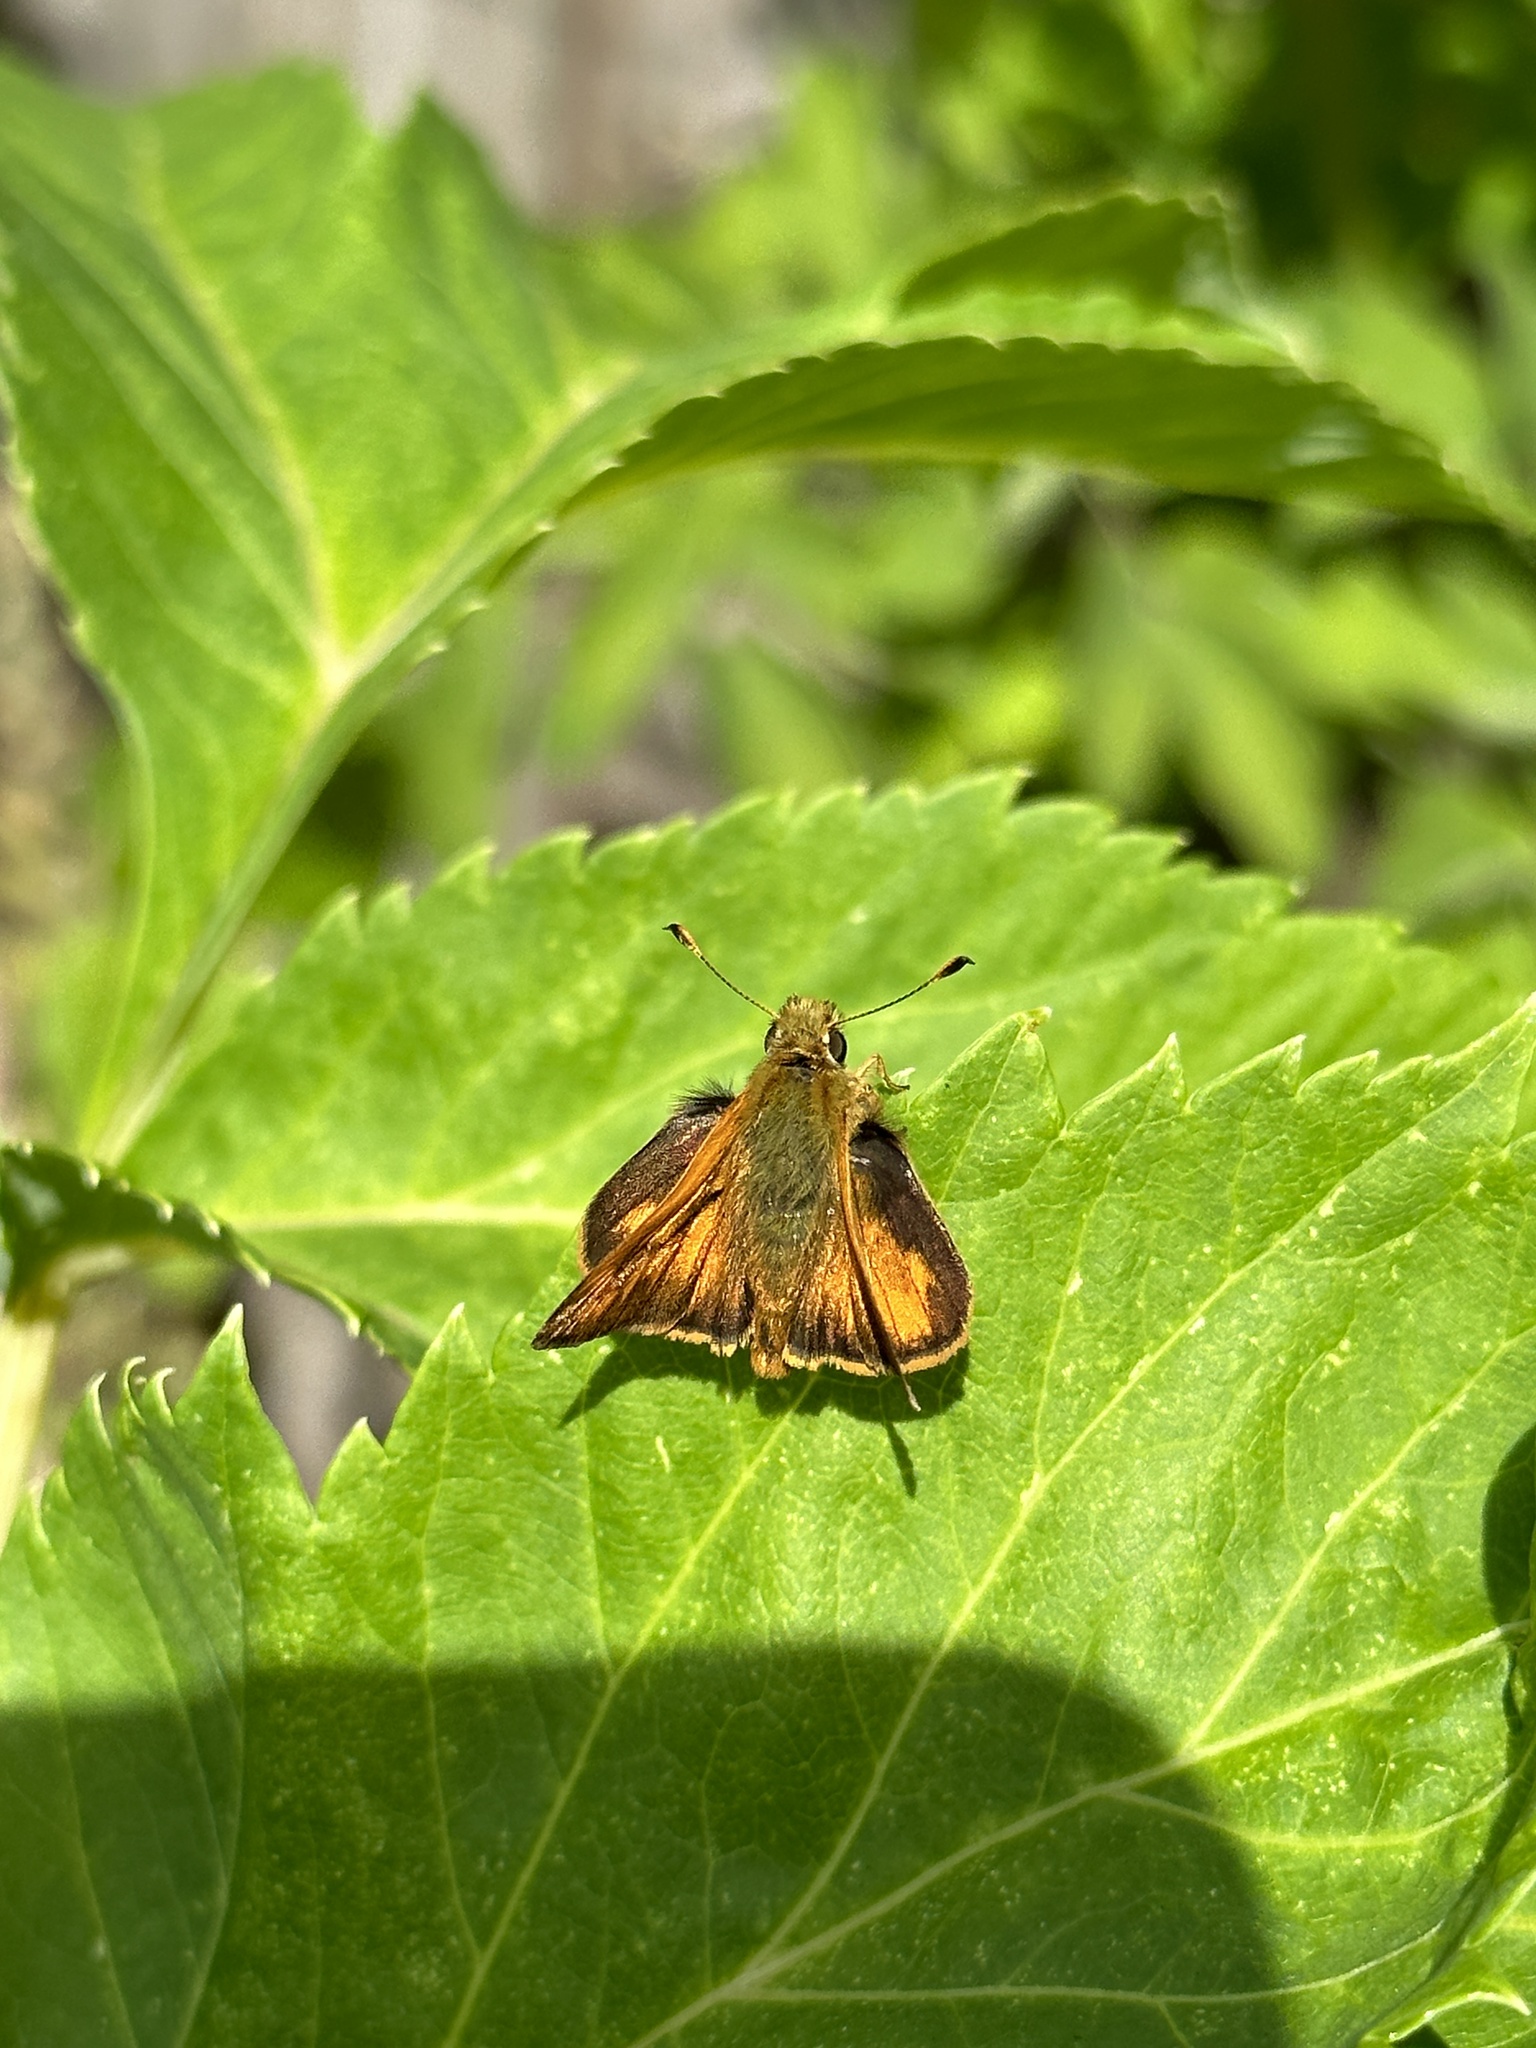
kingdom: Animalia
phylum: Arthropoda
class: Insecta
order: Lepidoptera
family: Hesperiidae
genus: Ochlodes
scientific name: Ochlodes sylvanoides
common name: Woodland skipper
